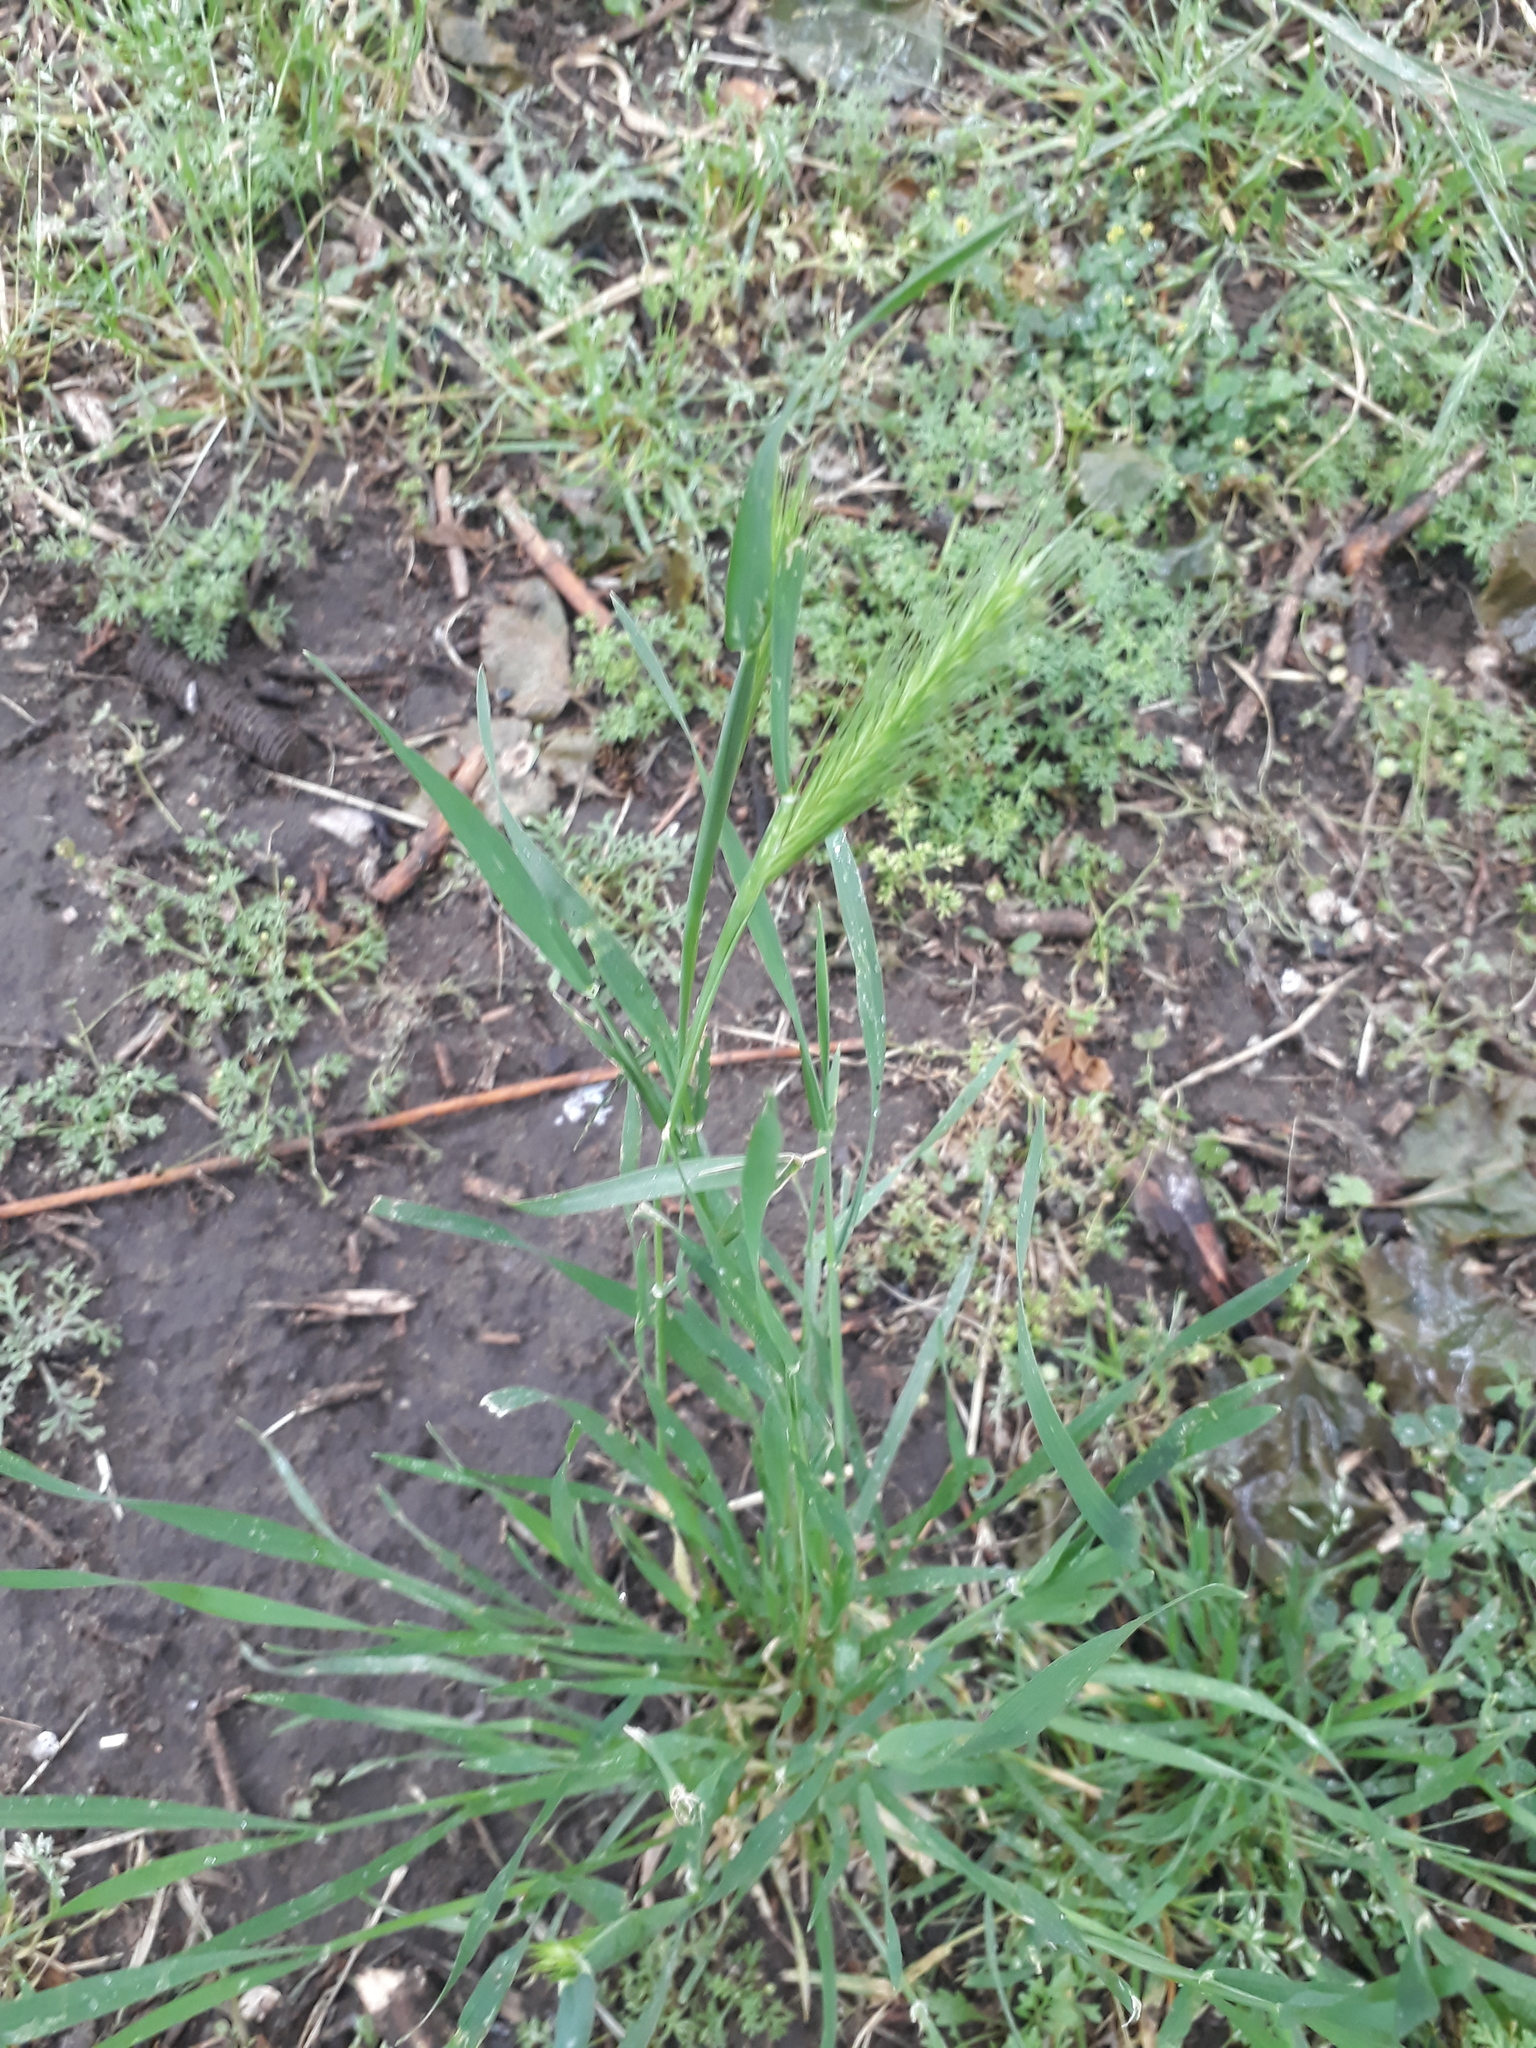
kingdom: Plantae
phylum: Tracheophyta
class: Liliopsida
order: Poales
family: Poaceae
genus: Hordeum
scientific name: Hordeum murinum
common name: Wall barley
